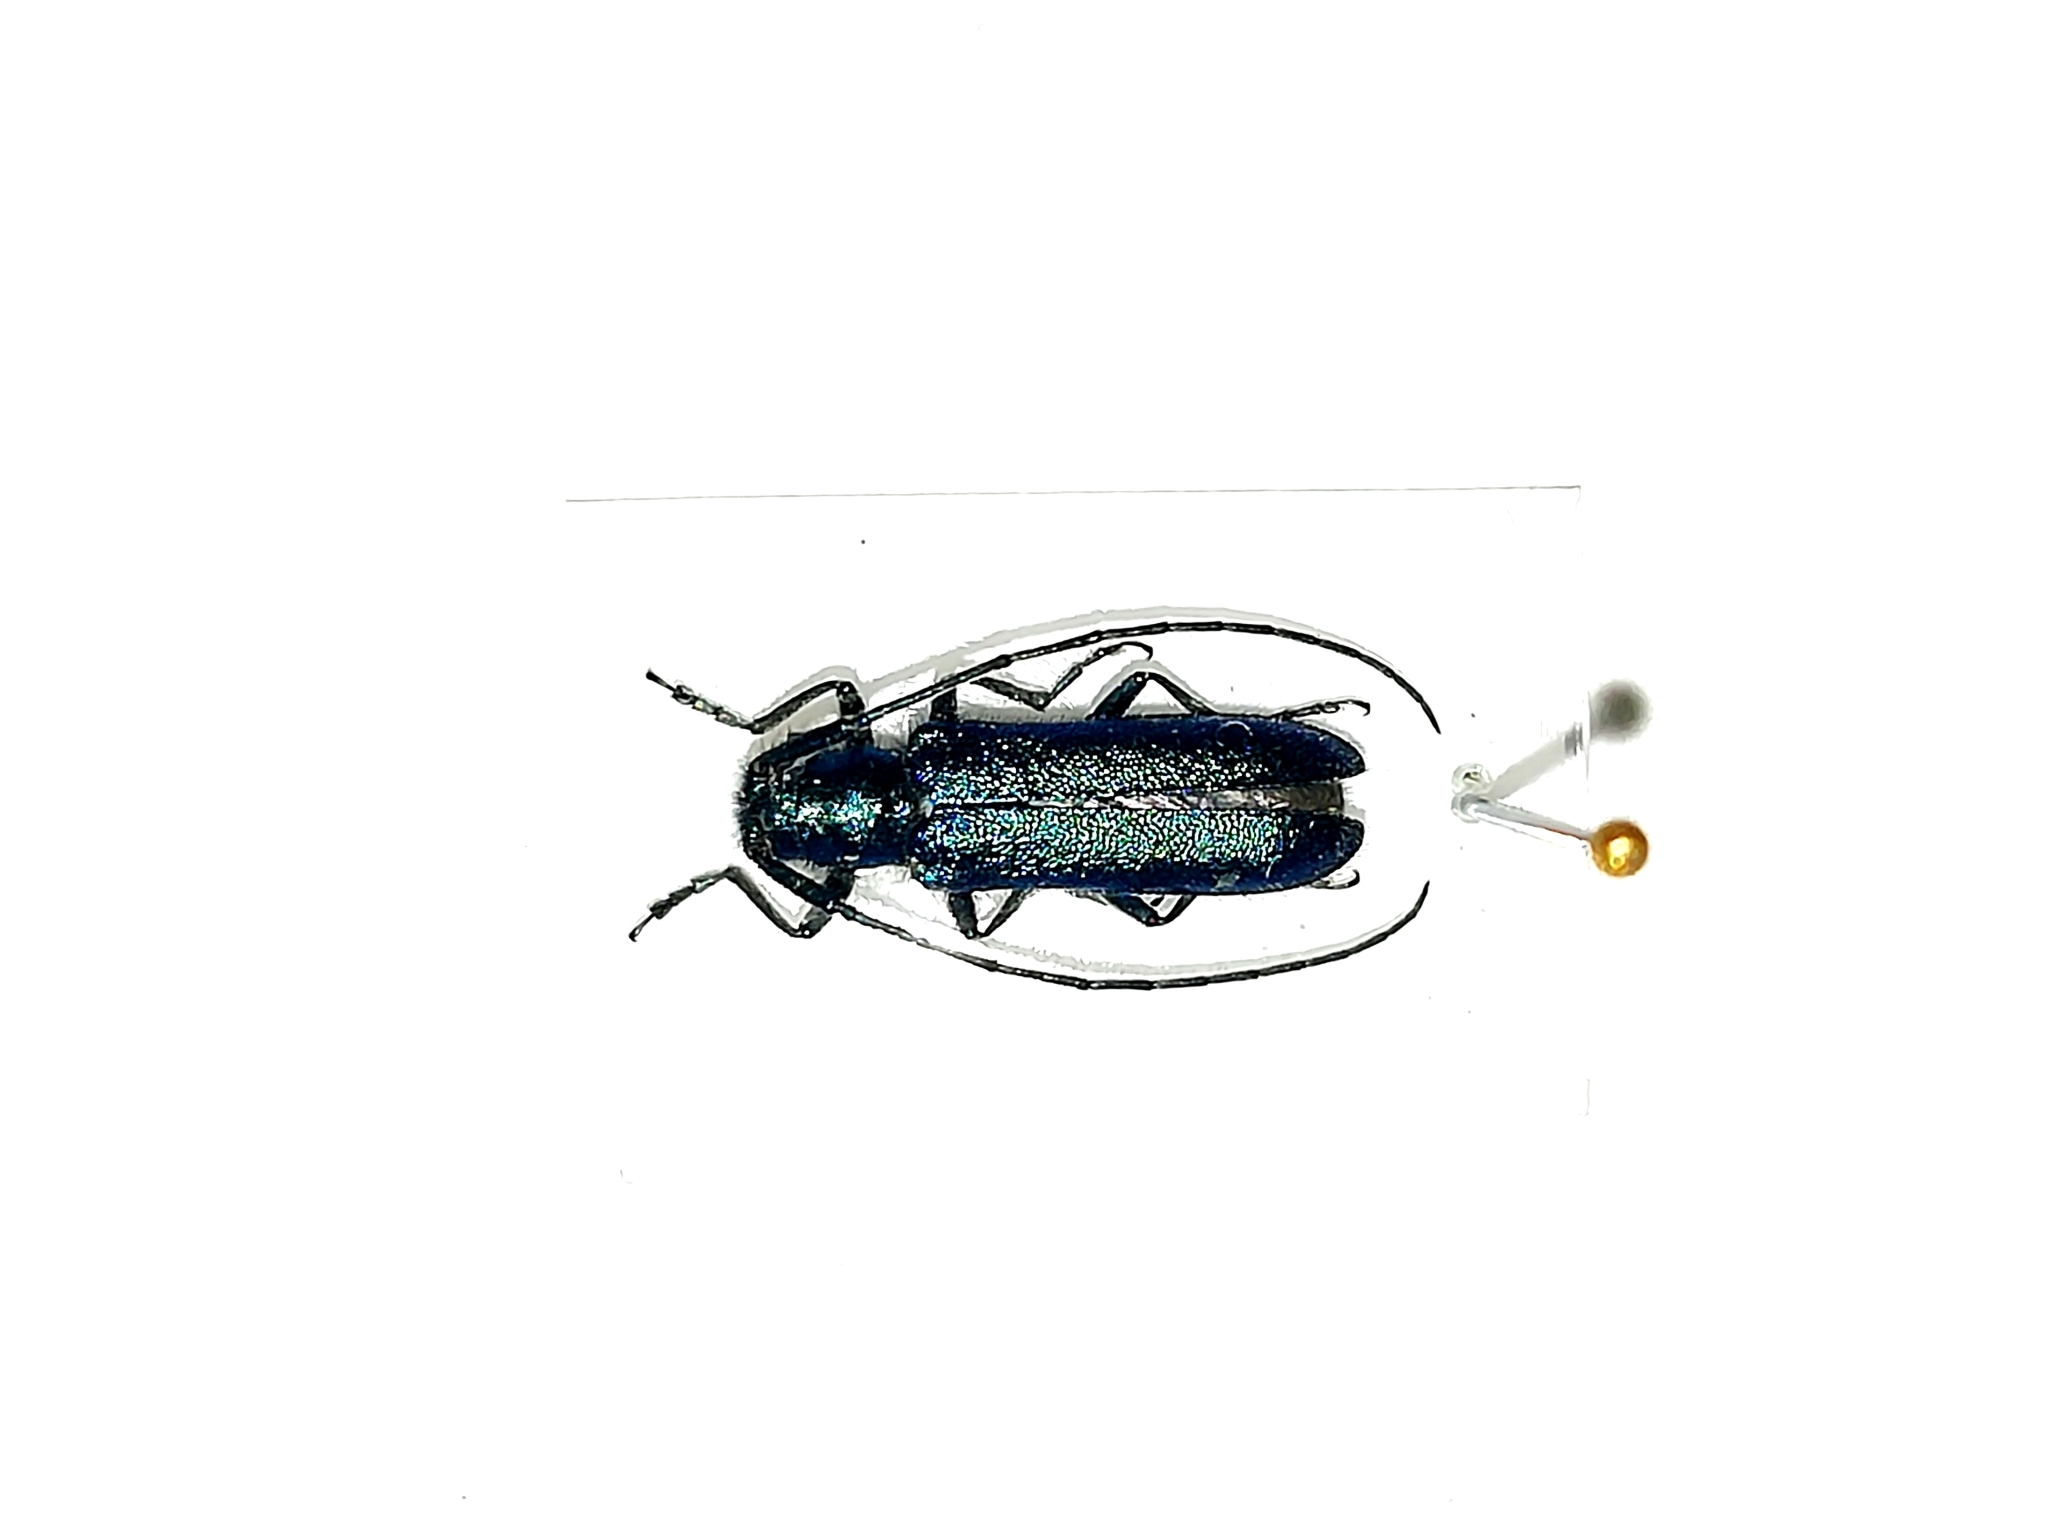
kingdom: Animalia
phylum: Arthropoda
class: Insecta
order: Coleoptera
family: Cerambycidae
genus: Agapanthia
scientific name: Agapanthia intermedia
